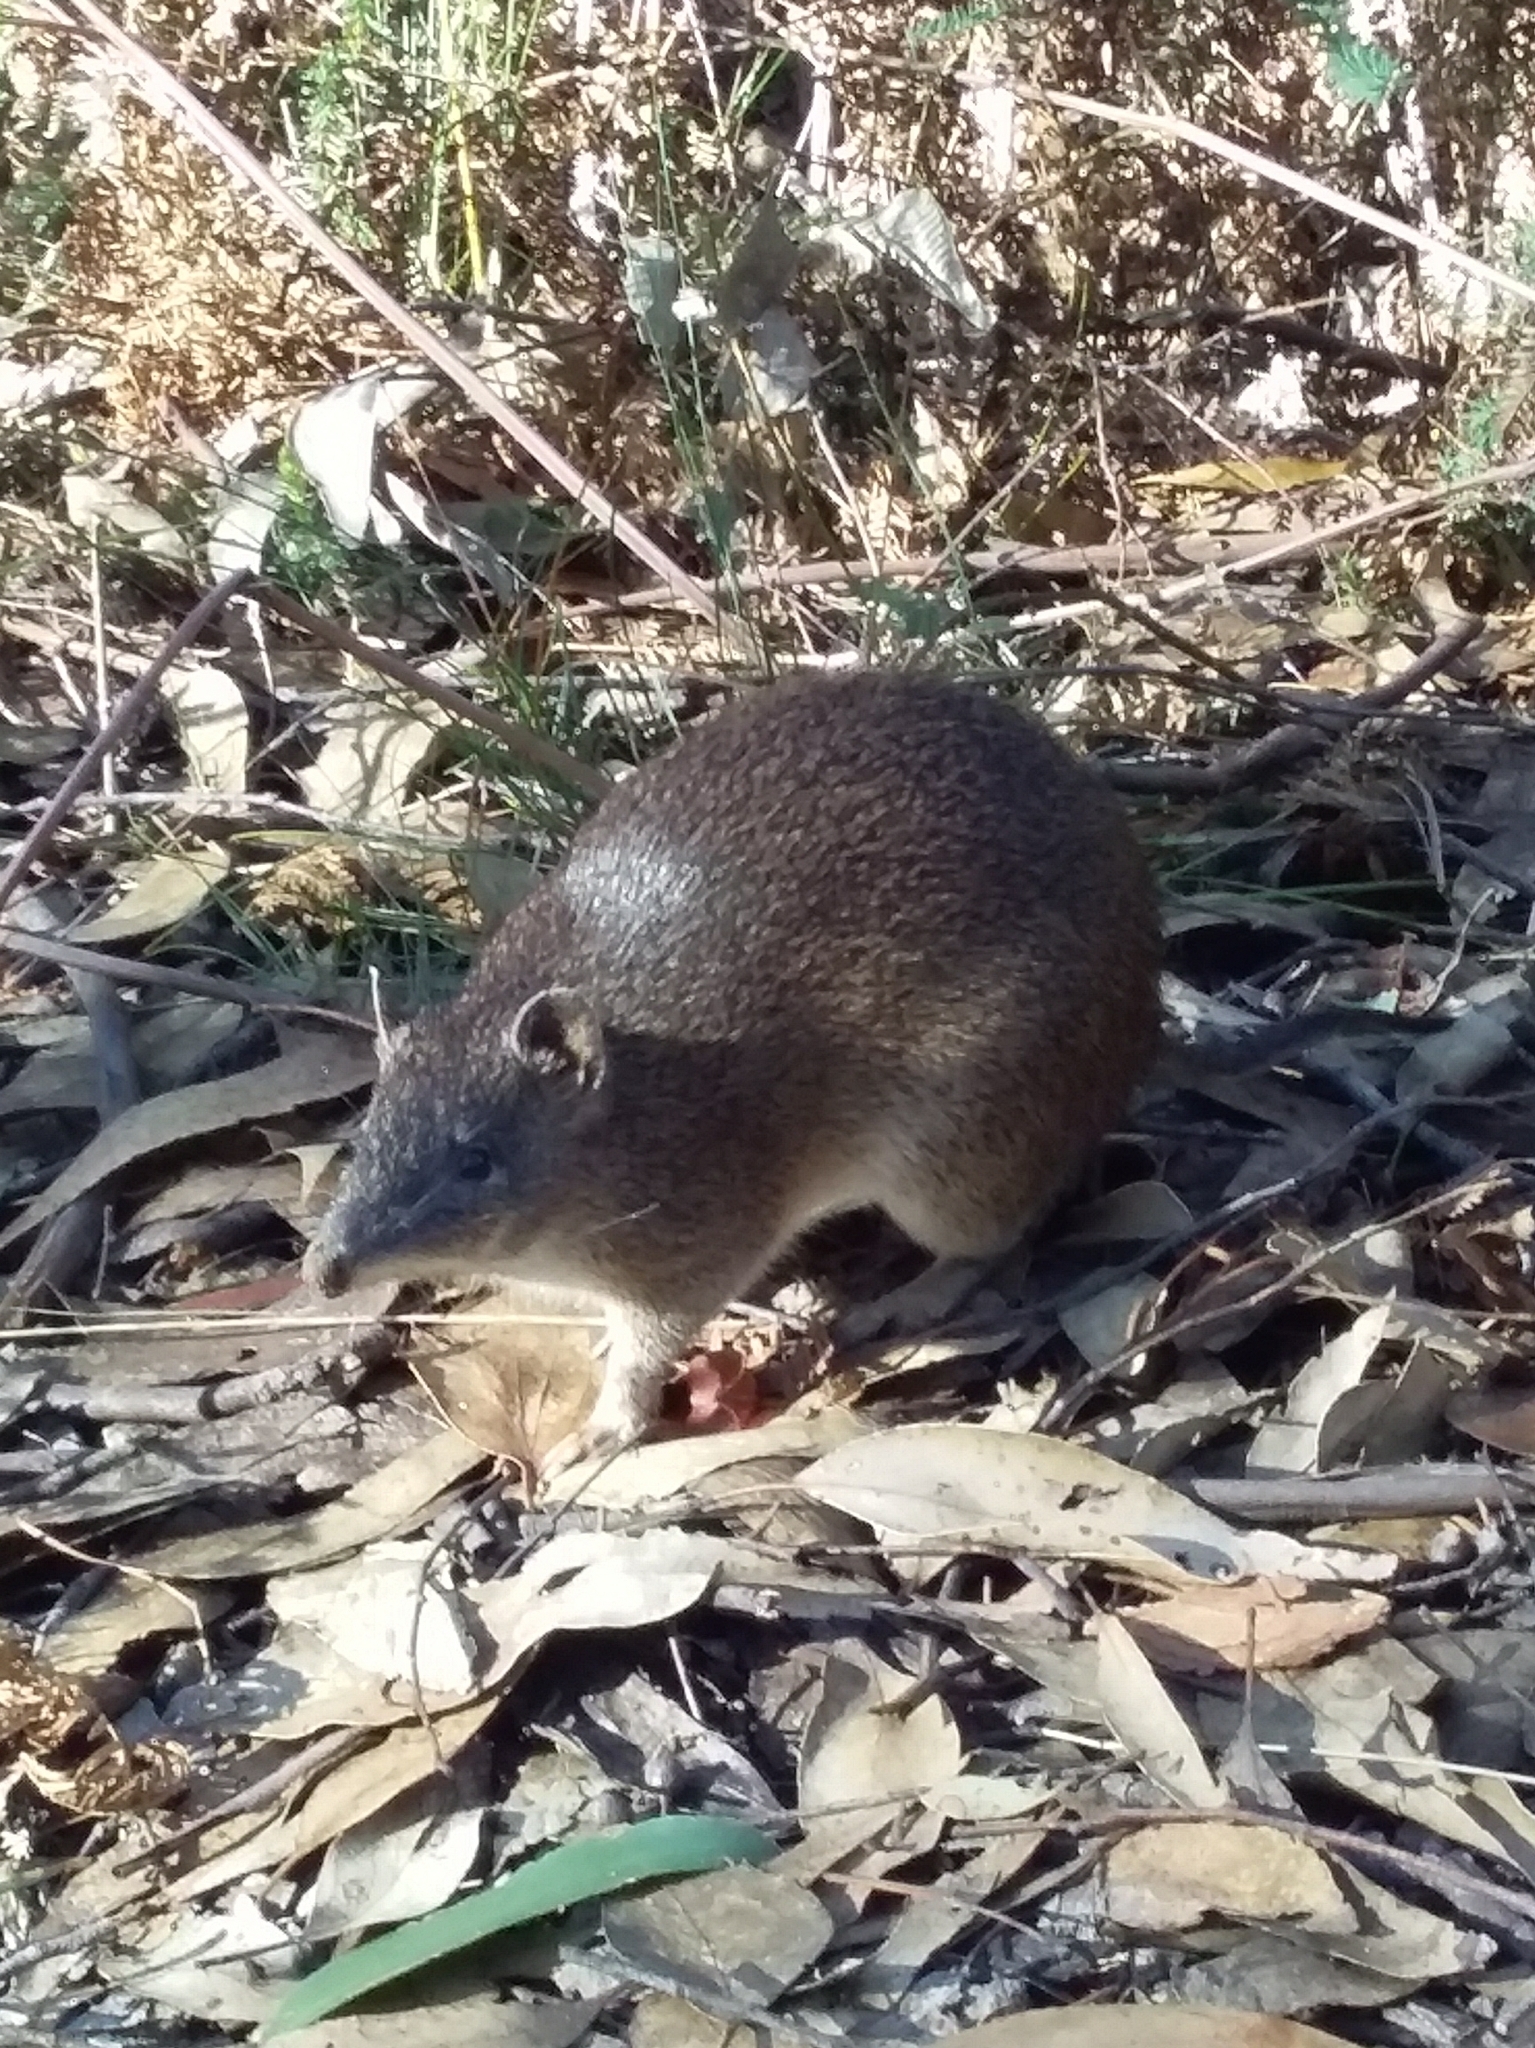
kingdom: Animalia
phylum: Chordata
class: Mammalia
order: Peramelemorphia
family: Peramelidae
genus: Isoodon
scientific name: Isoodon obesulus
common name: Southern brown bandicoot
